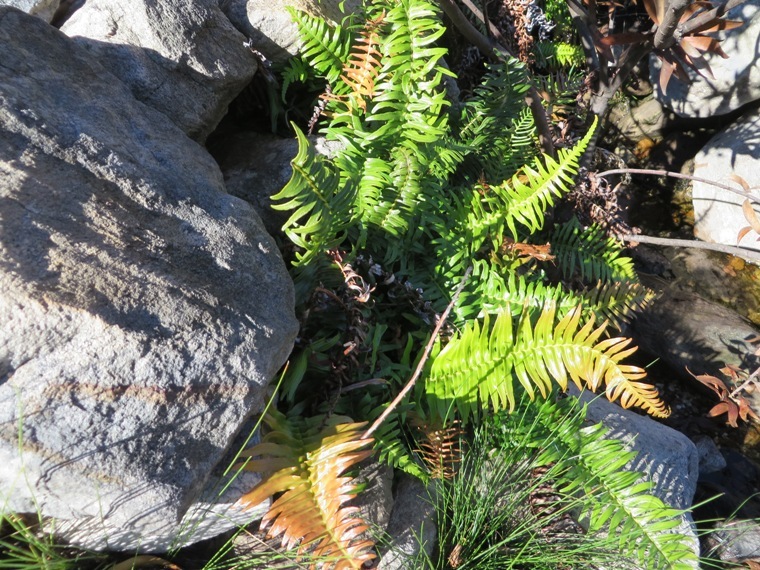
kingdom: Plantae
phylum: Tracheophyta
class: Polypodiopsida
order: Polypodiales
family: Blechnaceae
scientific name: Blechnaceae
